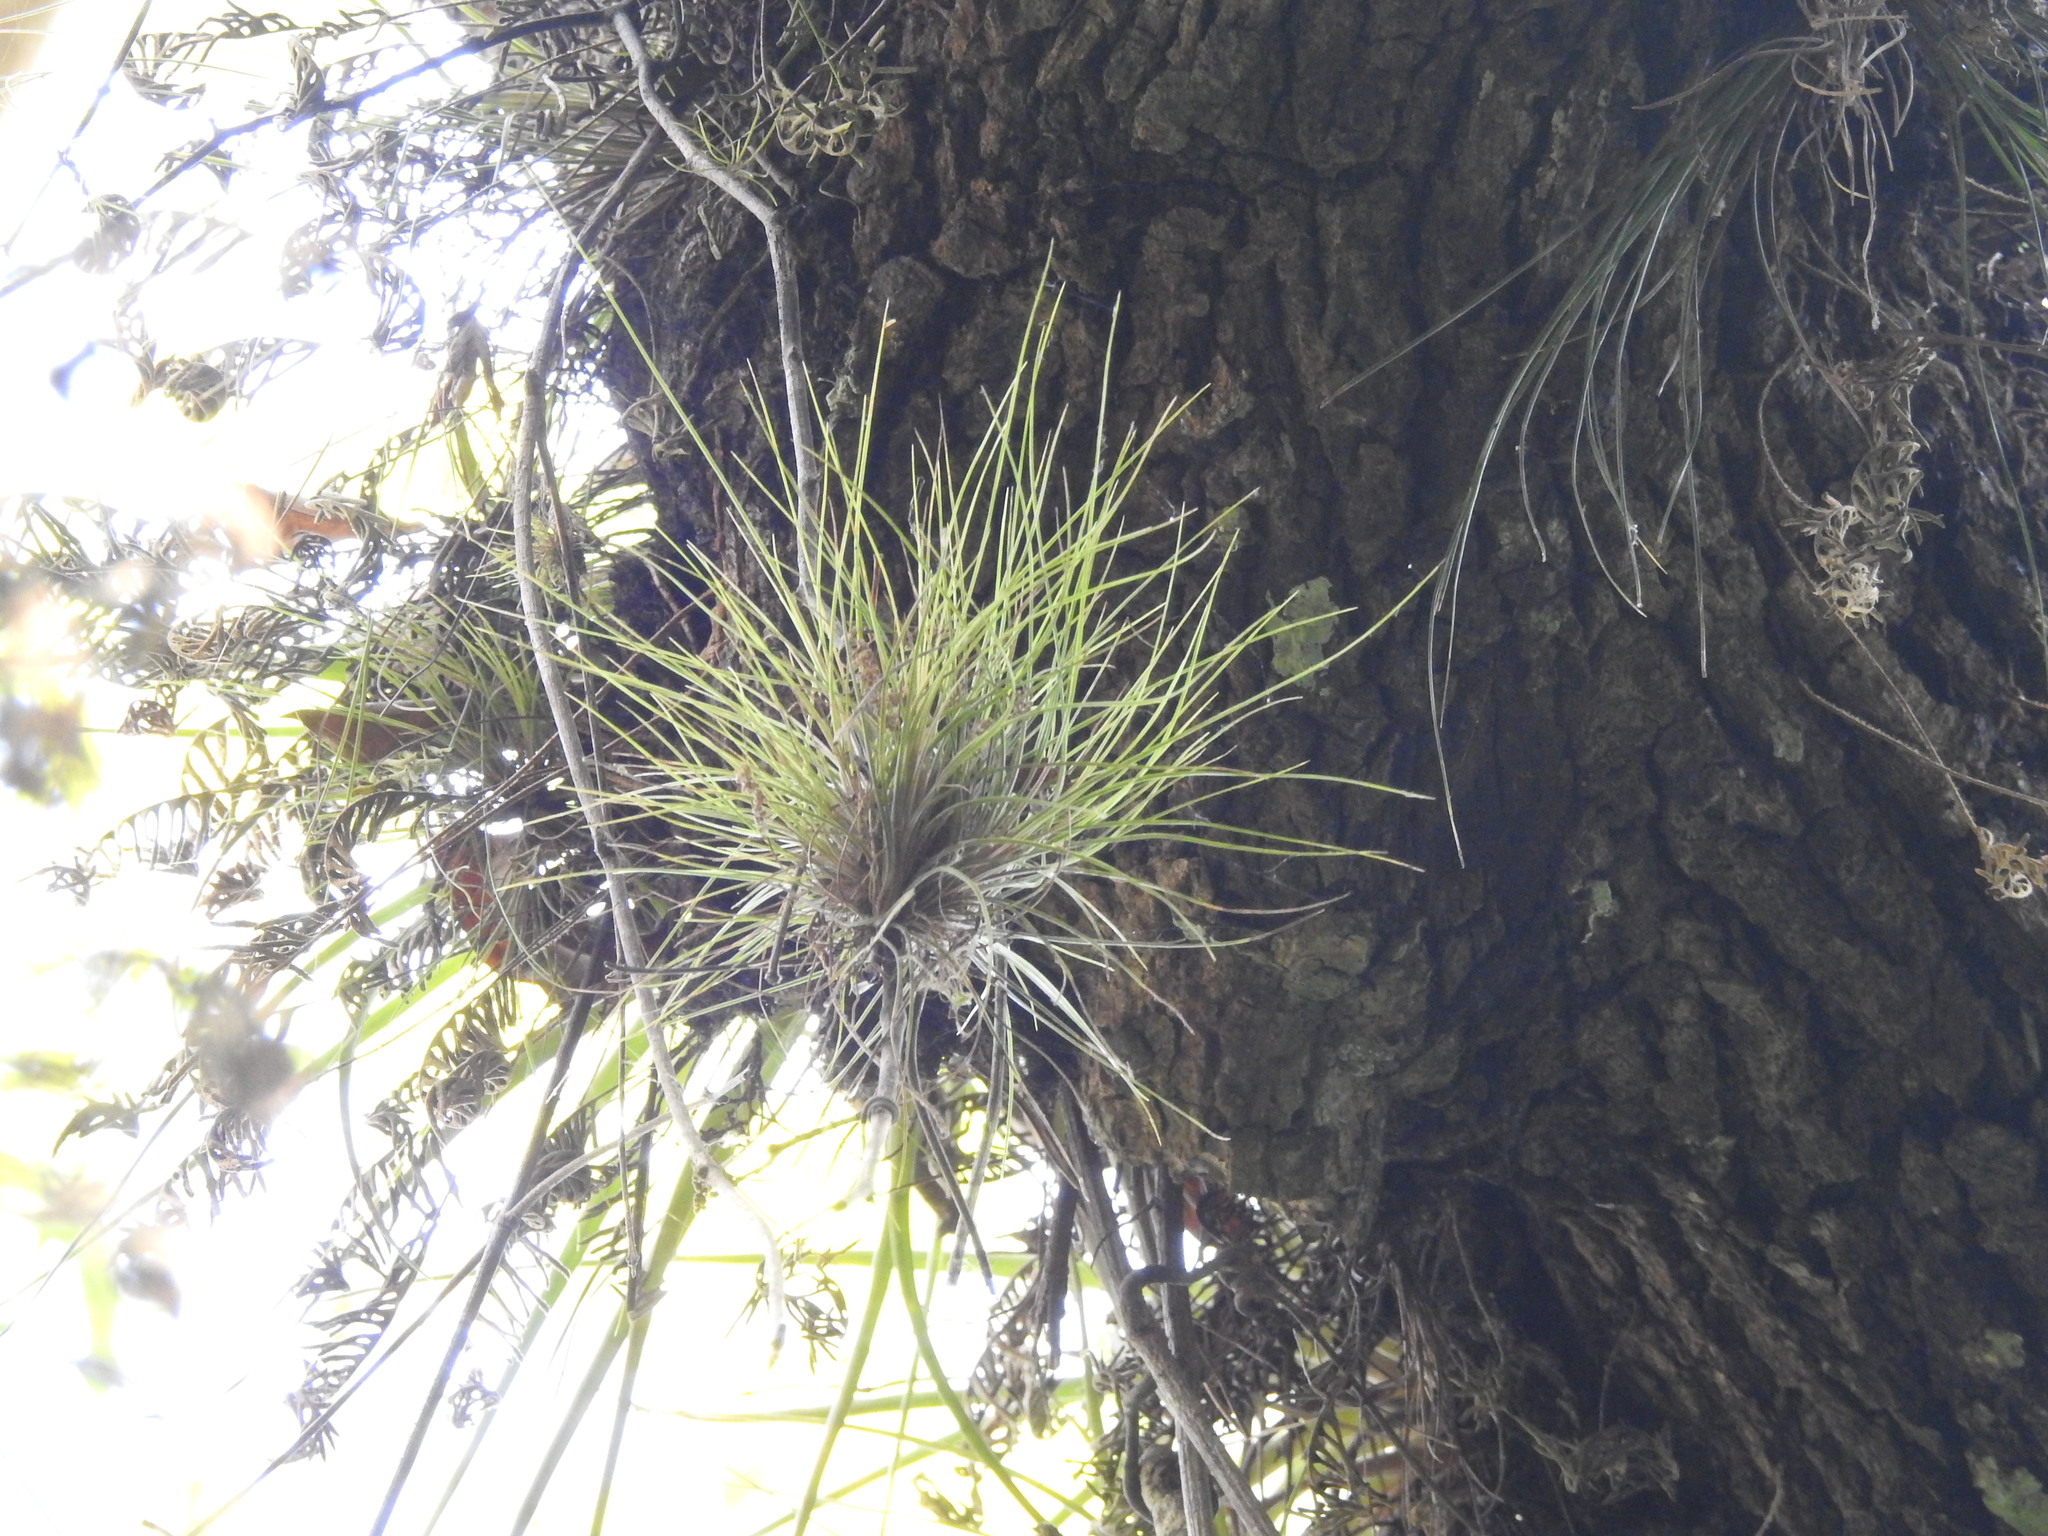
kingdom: Plantae
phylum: Tracheophyta
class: Liliopsida
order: Poales
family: Bromeliaceae
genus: Tillandsia
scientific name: Tillandsia setacea
